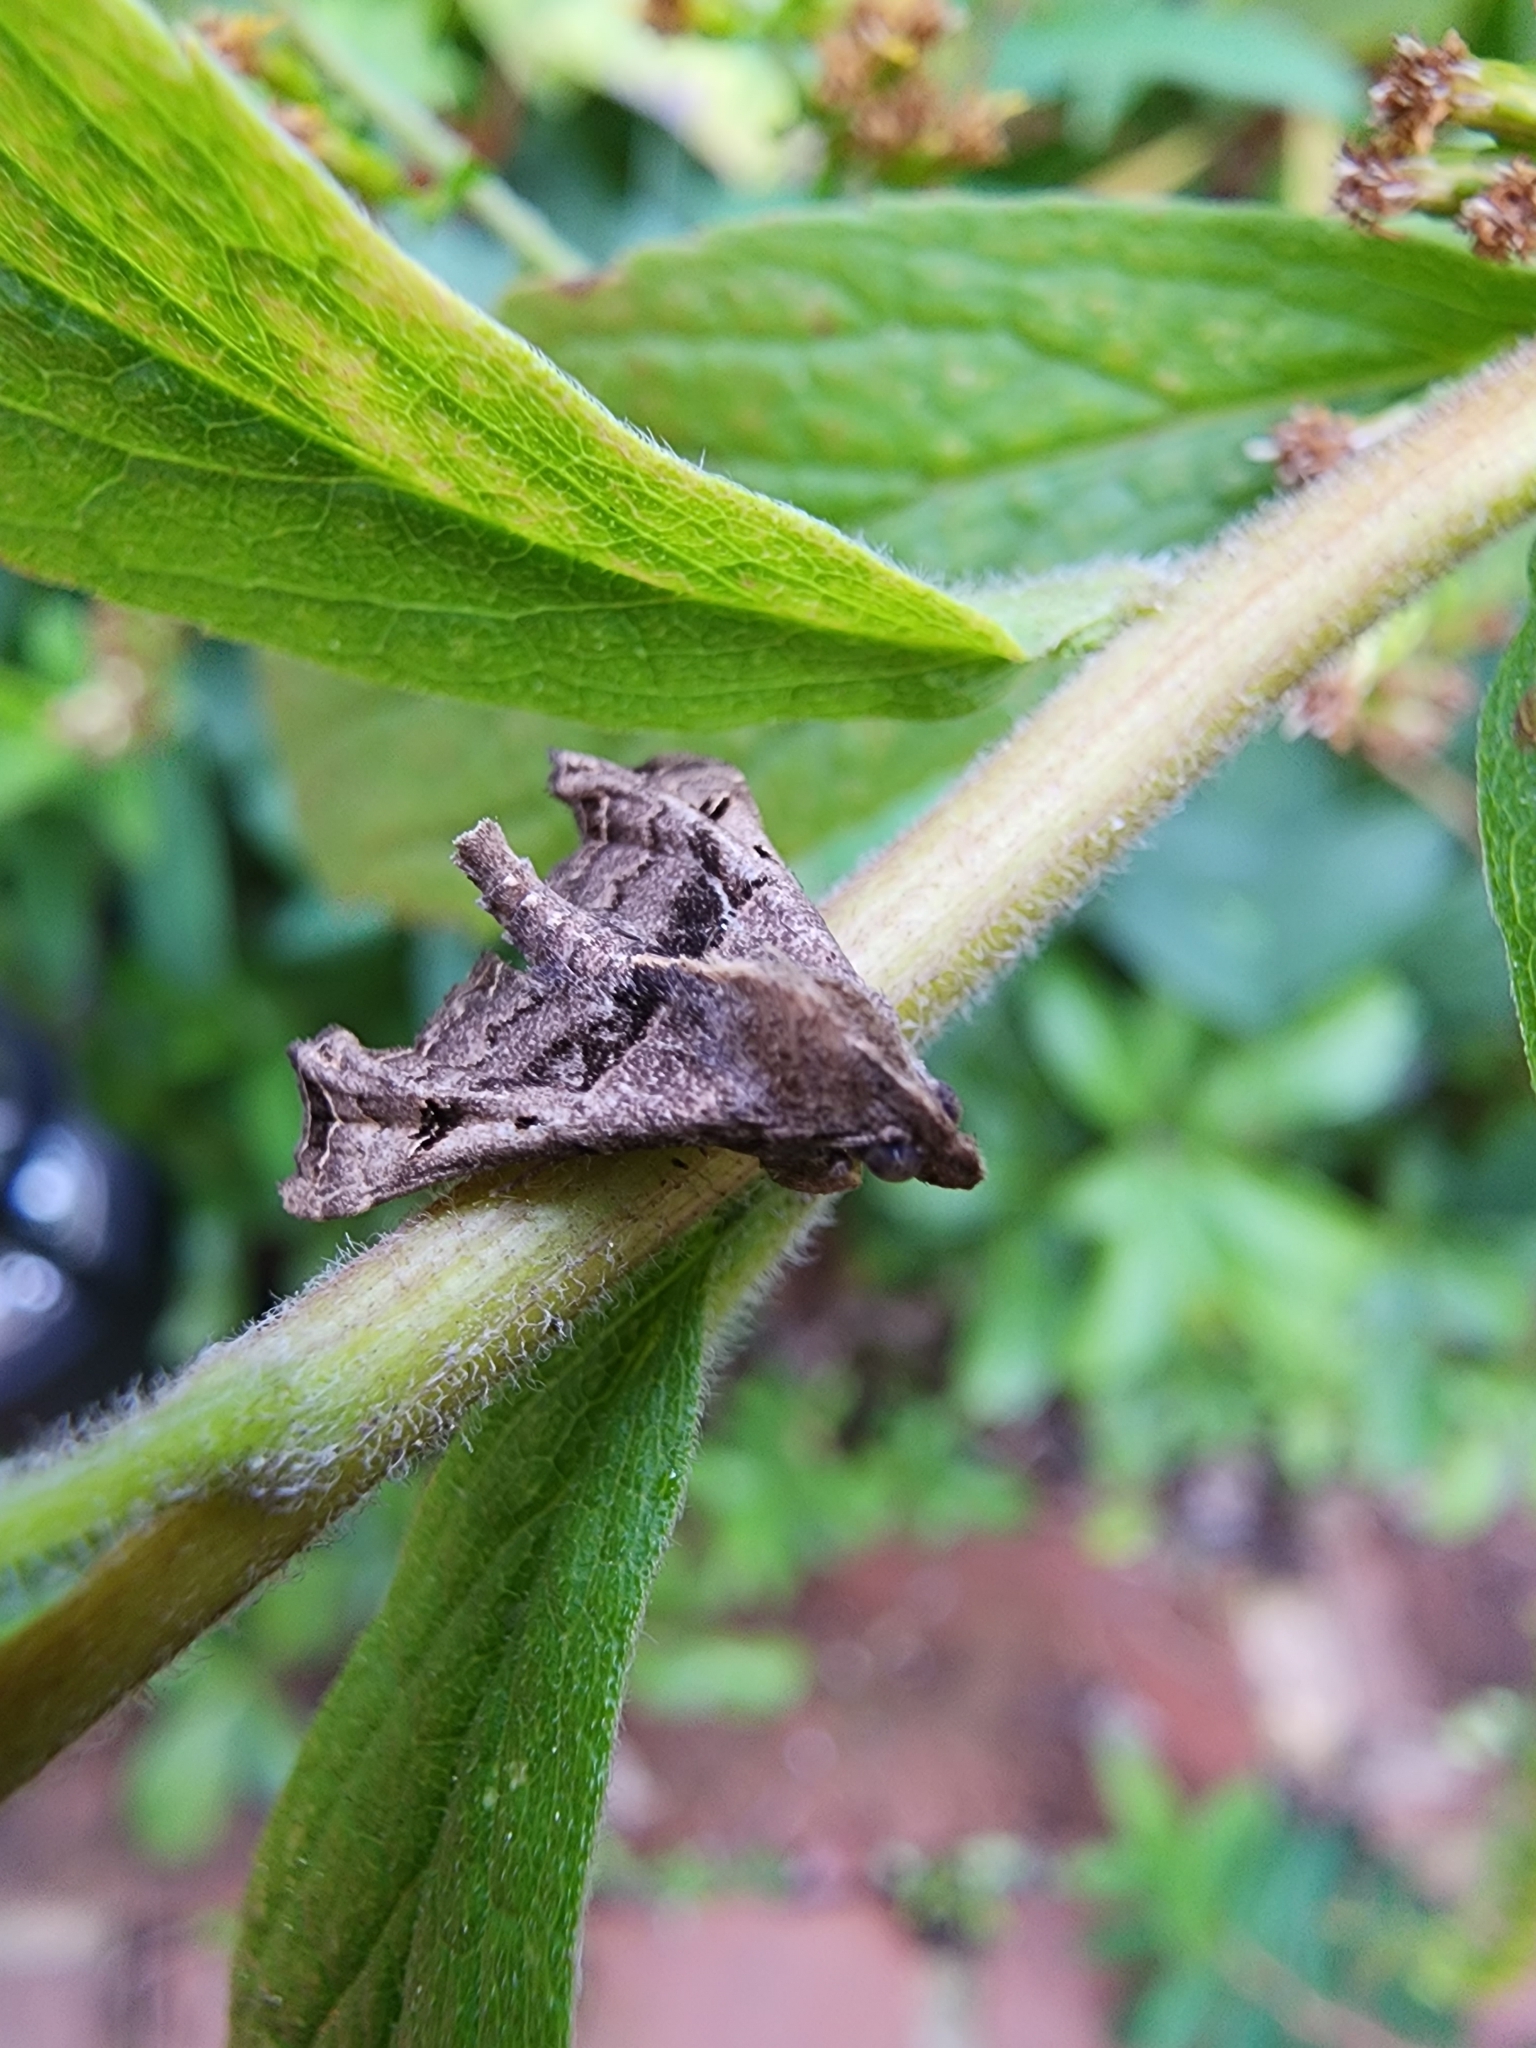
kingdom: Animalia
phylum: Arthropoda
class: Insecta
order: Lepidoptera
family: Erebidae
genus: Palthis
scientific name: Palthis asopialis
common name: Faint-spotted palthis moth
